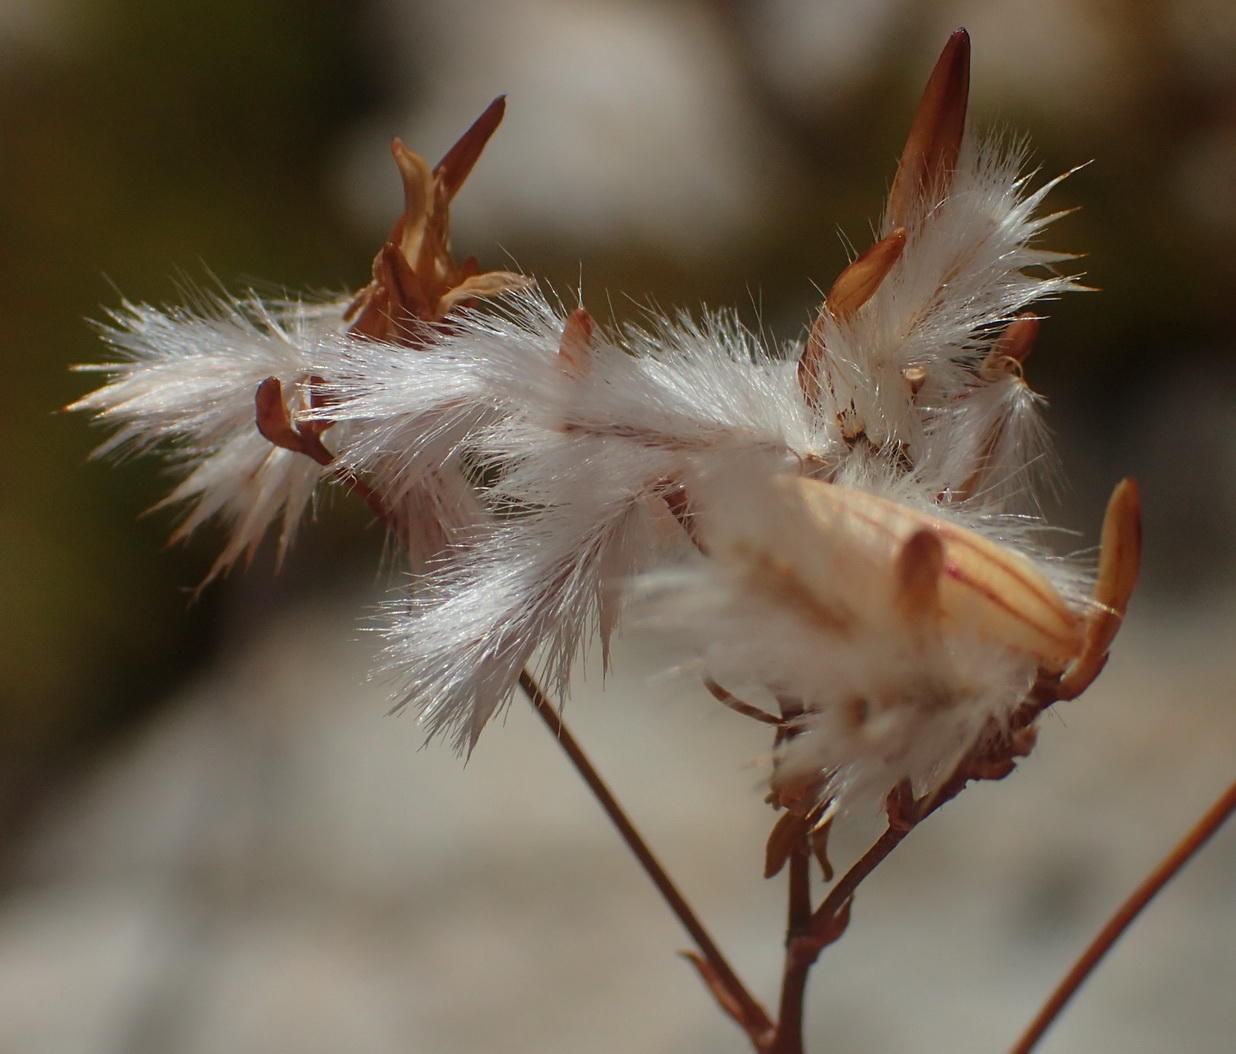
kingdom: Plantae
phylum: Tracheophyta
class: Magnoliopsida
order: Asterales
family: Asteraceae
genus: Corymbium
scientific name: Corymbium glabrum
